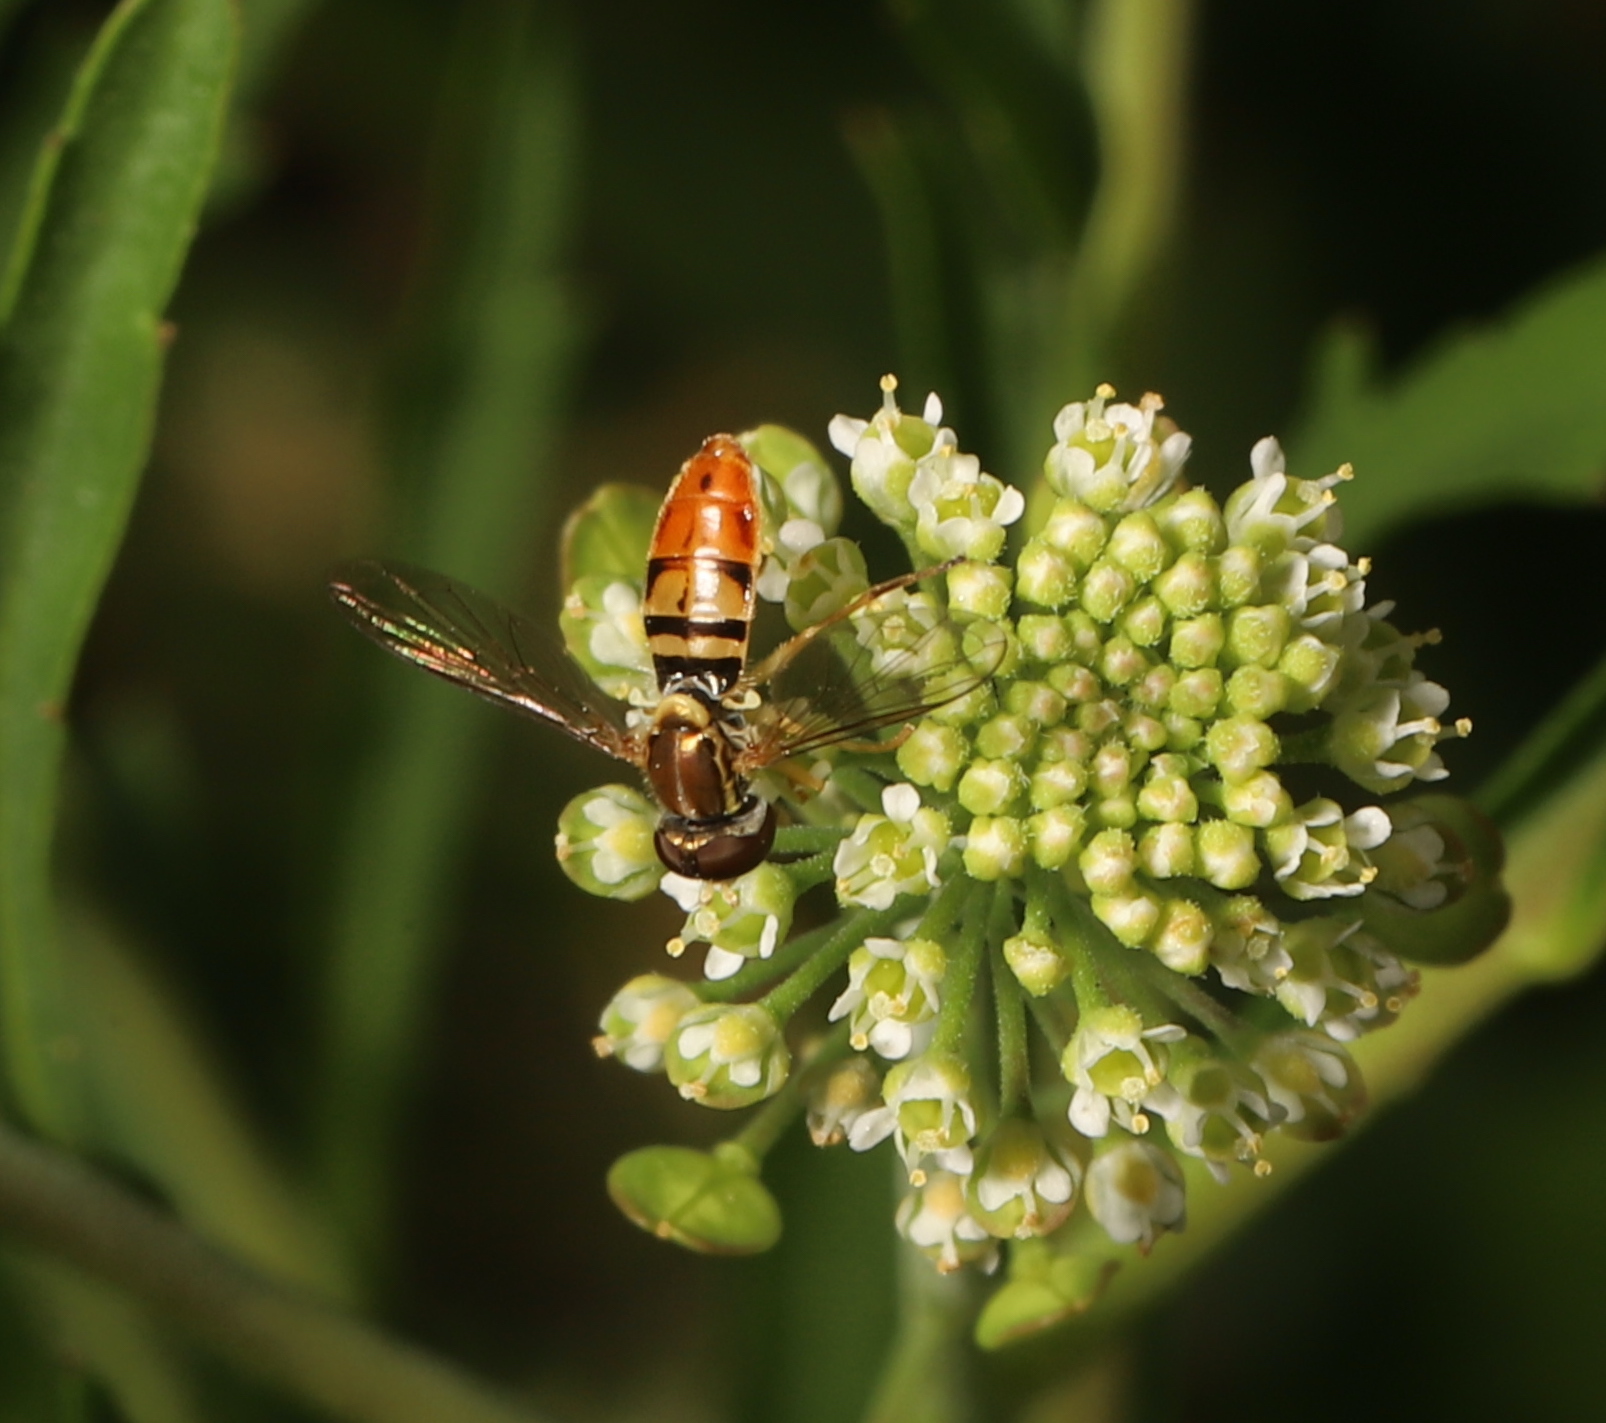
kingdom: Animalia
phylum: Arthropoda
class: Insecta
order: Diptera
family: Syrphidae
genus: Toxomerus
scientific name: Toxomerus marginatus
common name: Syrphid fly
